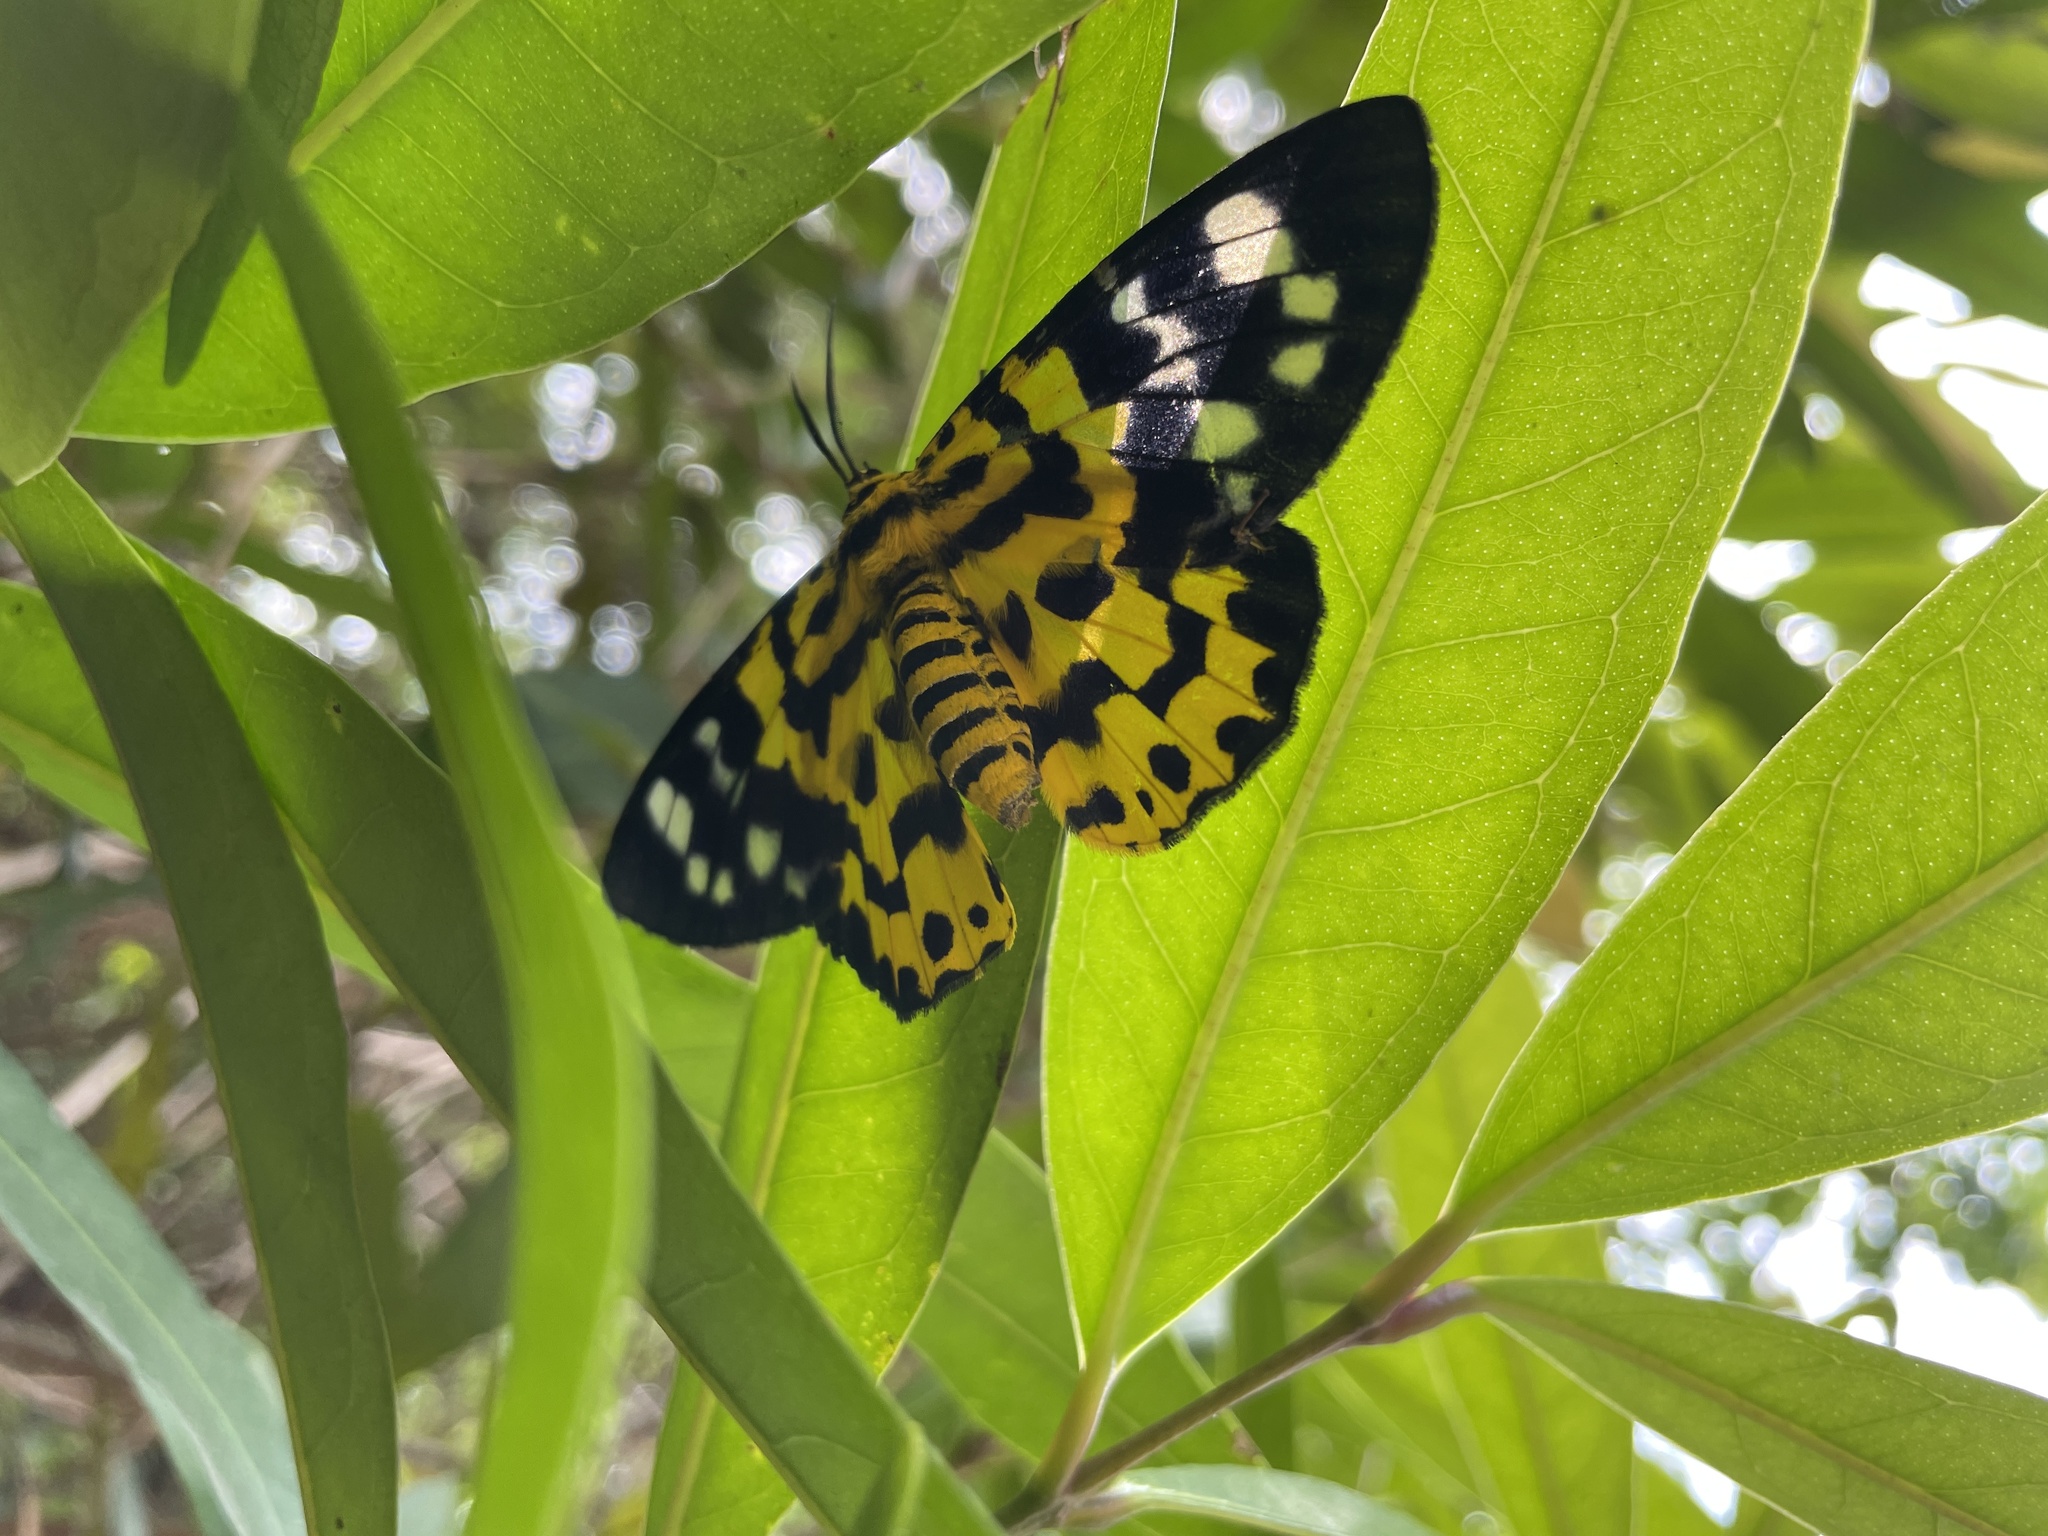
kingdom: Animalia
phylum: Arthropoda
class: Insecta
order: Lepidoptera
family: Geometridae
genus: Dysphania
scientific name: Dysphania militaris
